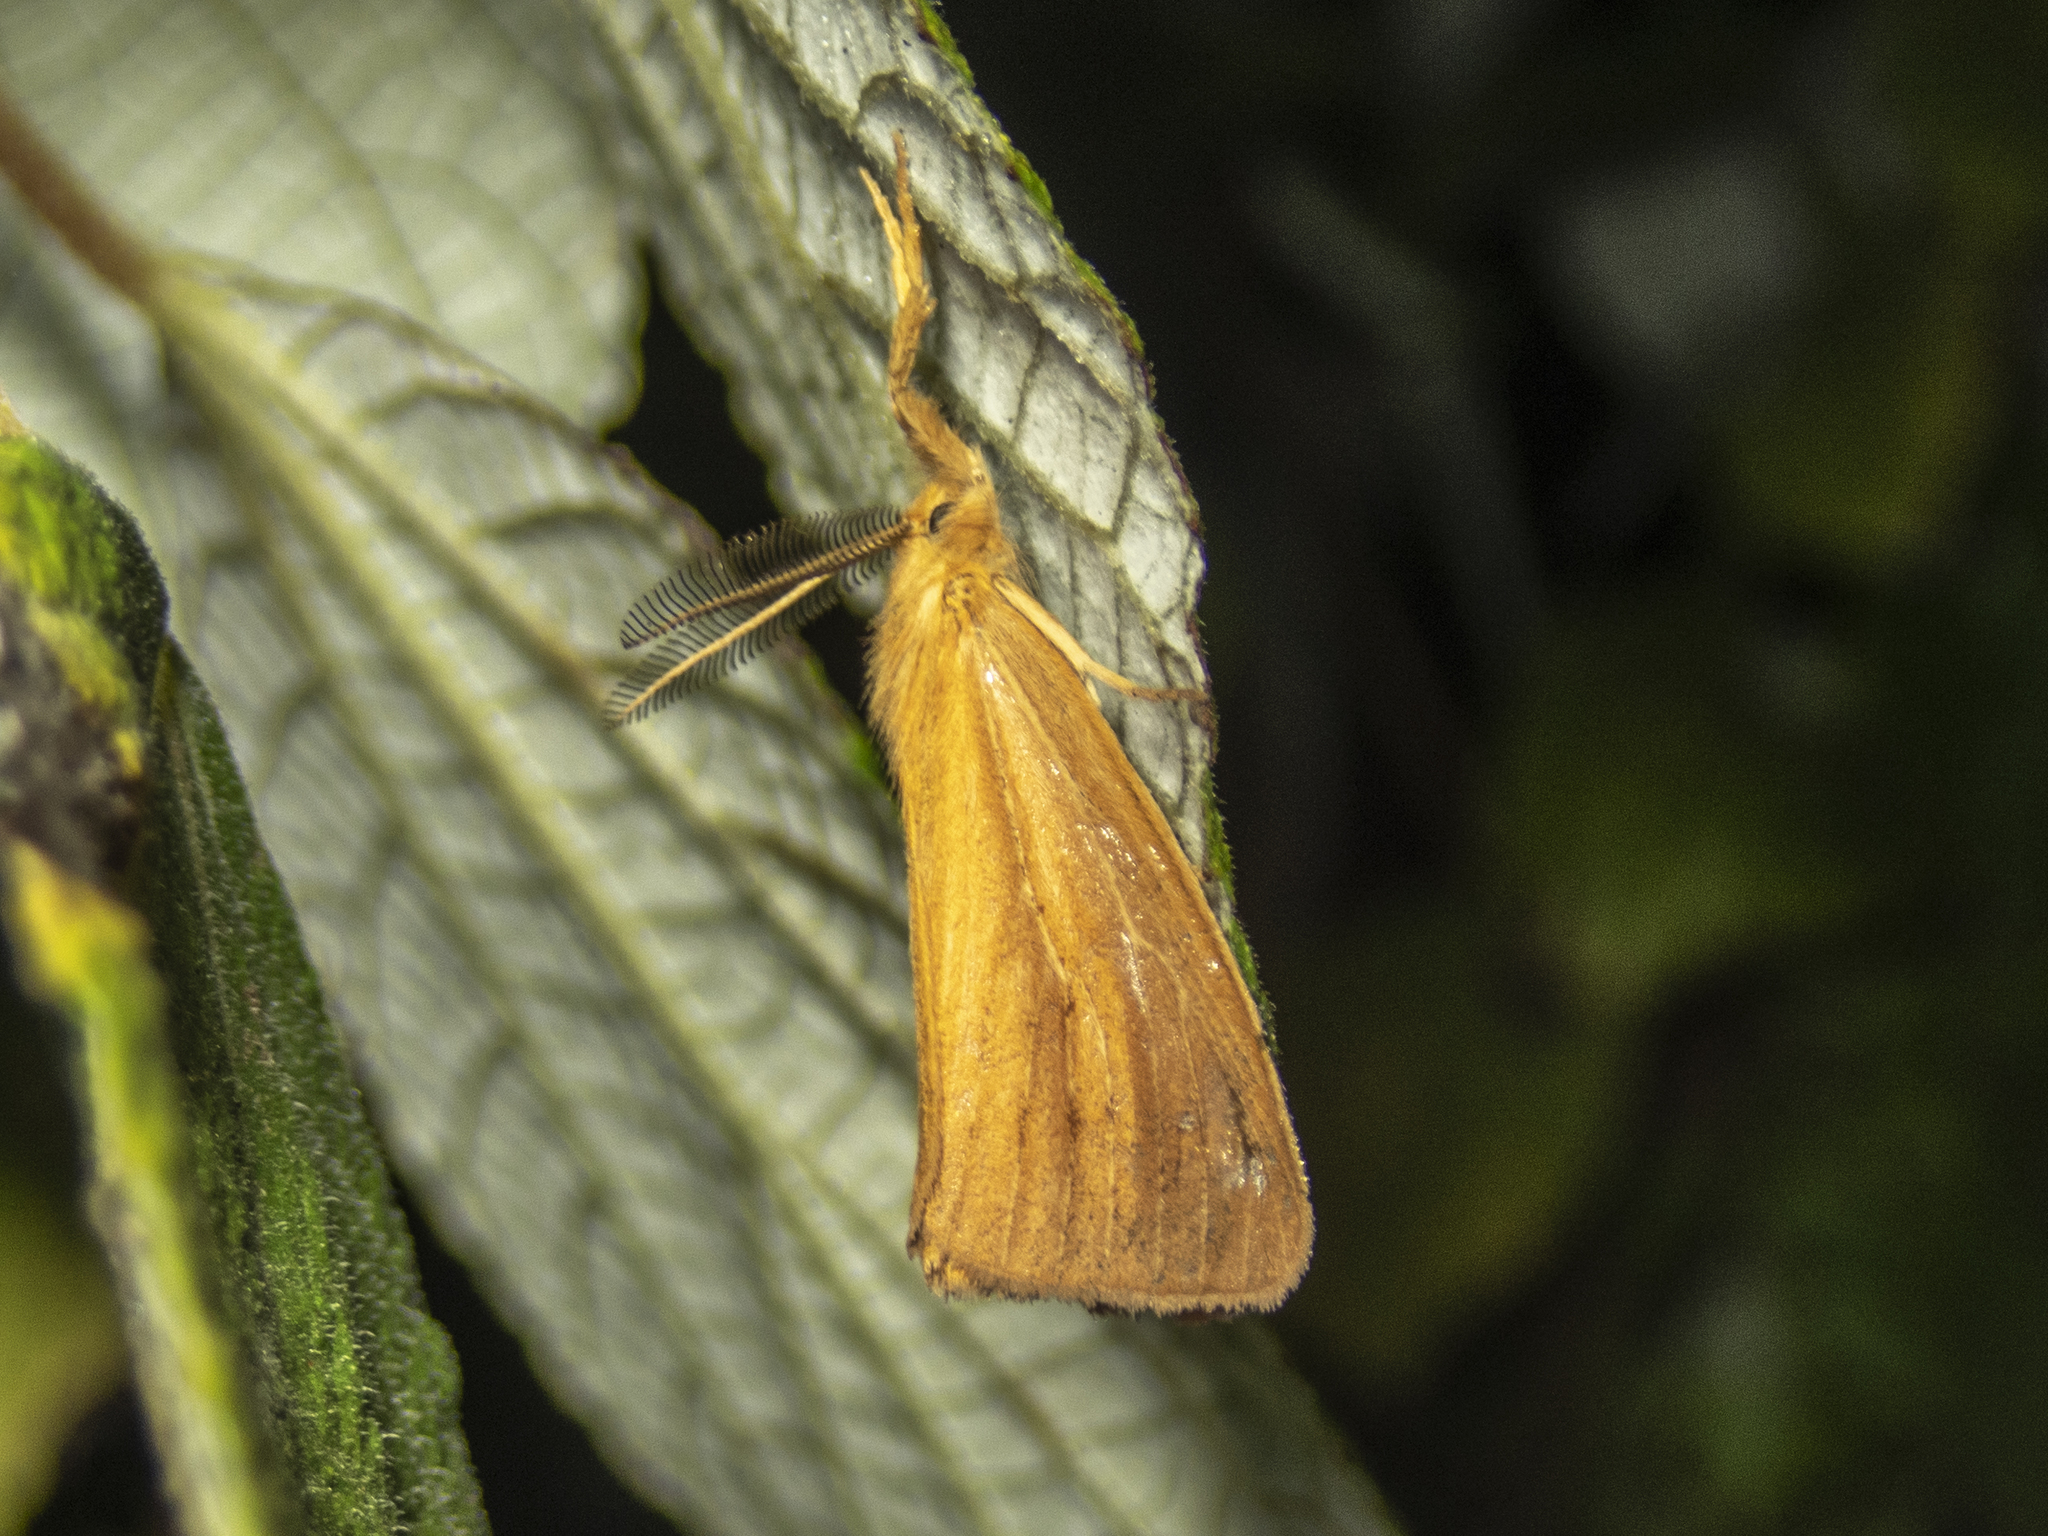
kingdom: Animalia
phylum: Arthropoda
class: Insecta
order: Lepidoptera
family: Erebidae
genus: Pantana
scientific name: Pantana
